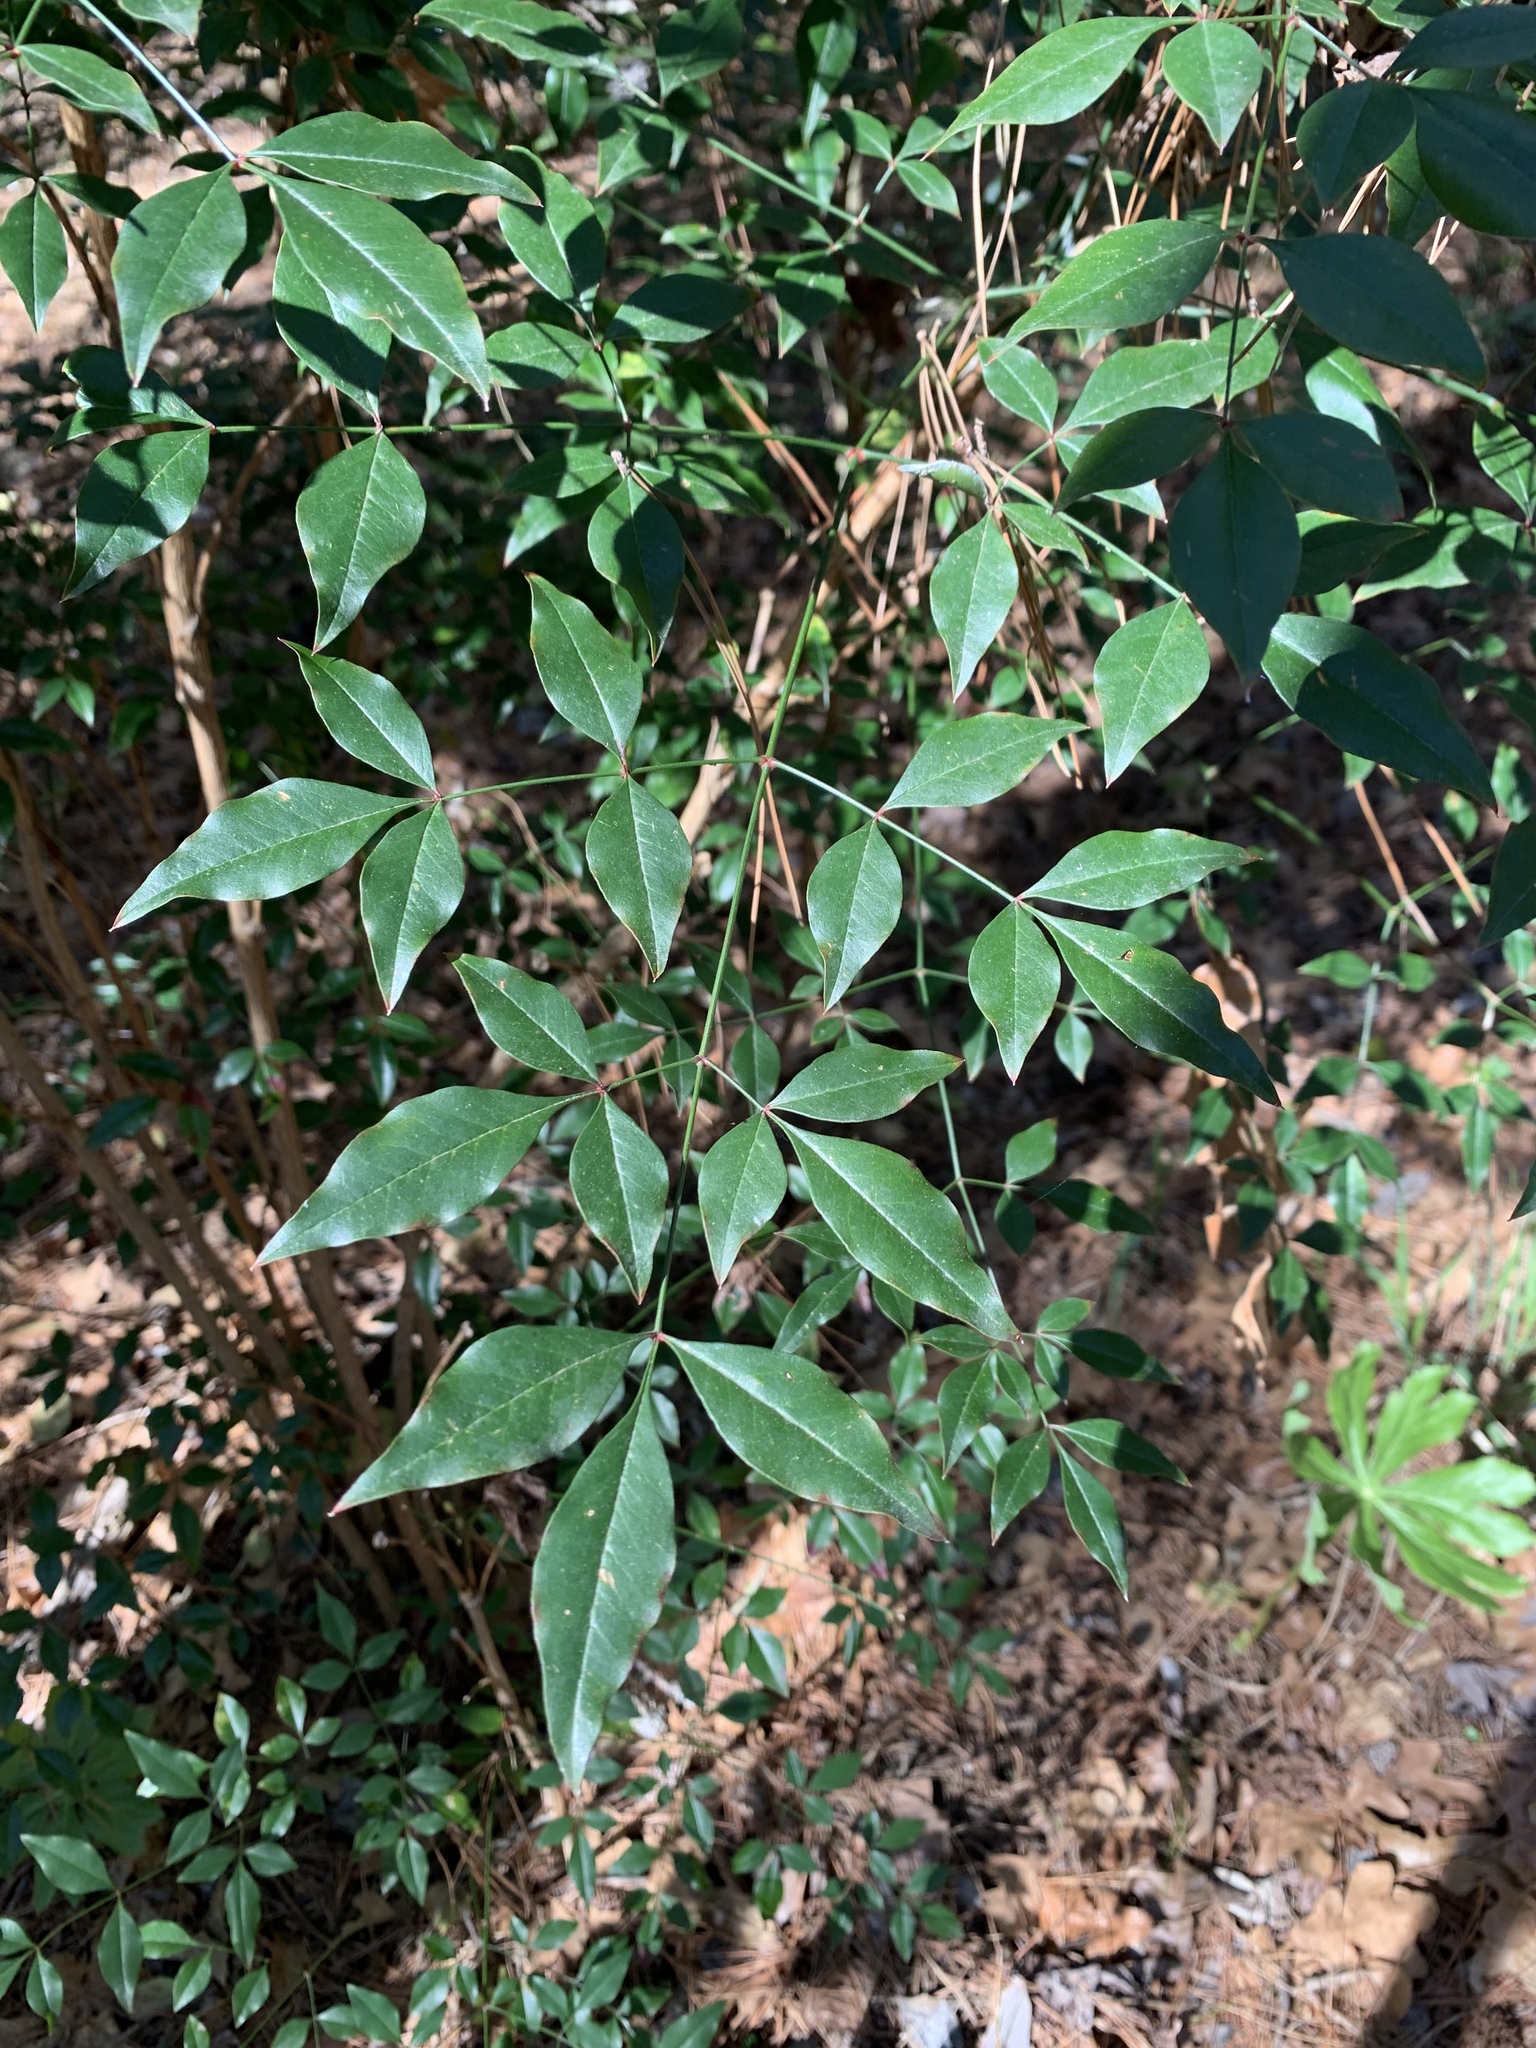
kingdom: Plantae
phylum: Tracheophyta
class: Magnoliopsida
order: Ranunculales
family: Berberidaceae
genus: Nandina
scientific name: Nandina domestica
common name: Sacred bamboo
